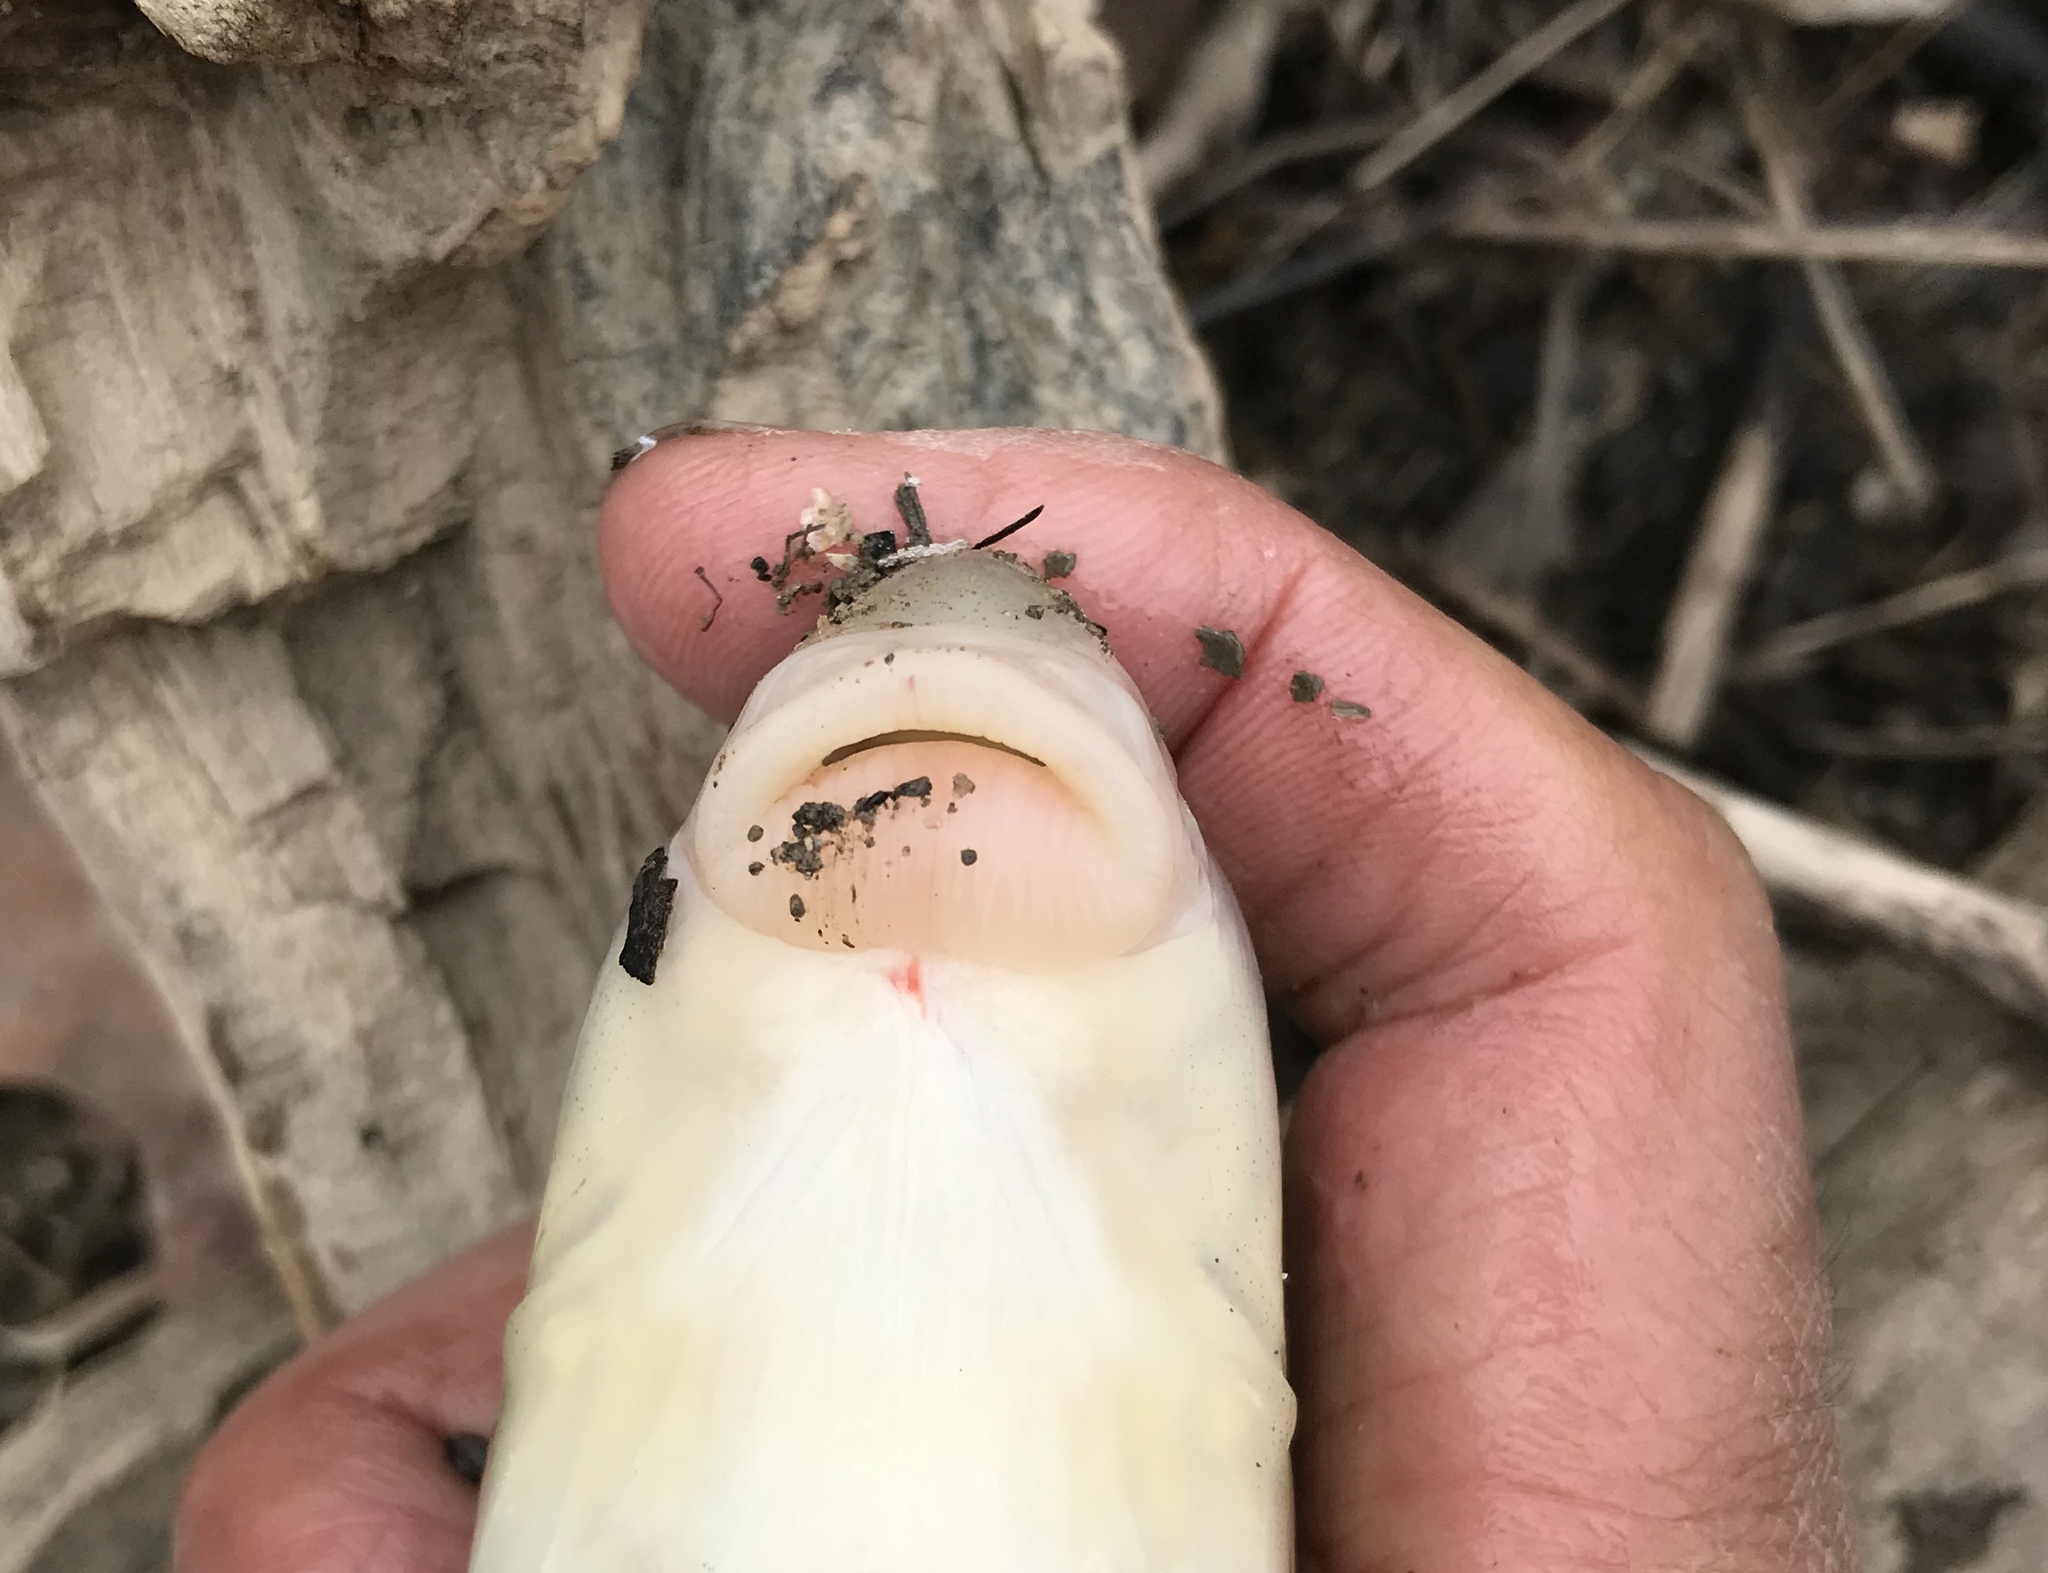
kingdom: Animalia
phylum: Chordata
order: Cypriniformes
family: Catostomidae
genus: Moxostoma
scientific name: Moxostoma duquesnii
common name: Black redhorse
